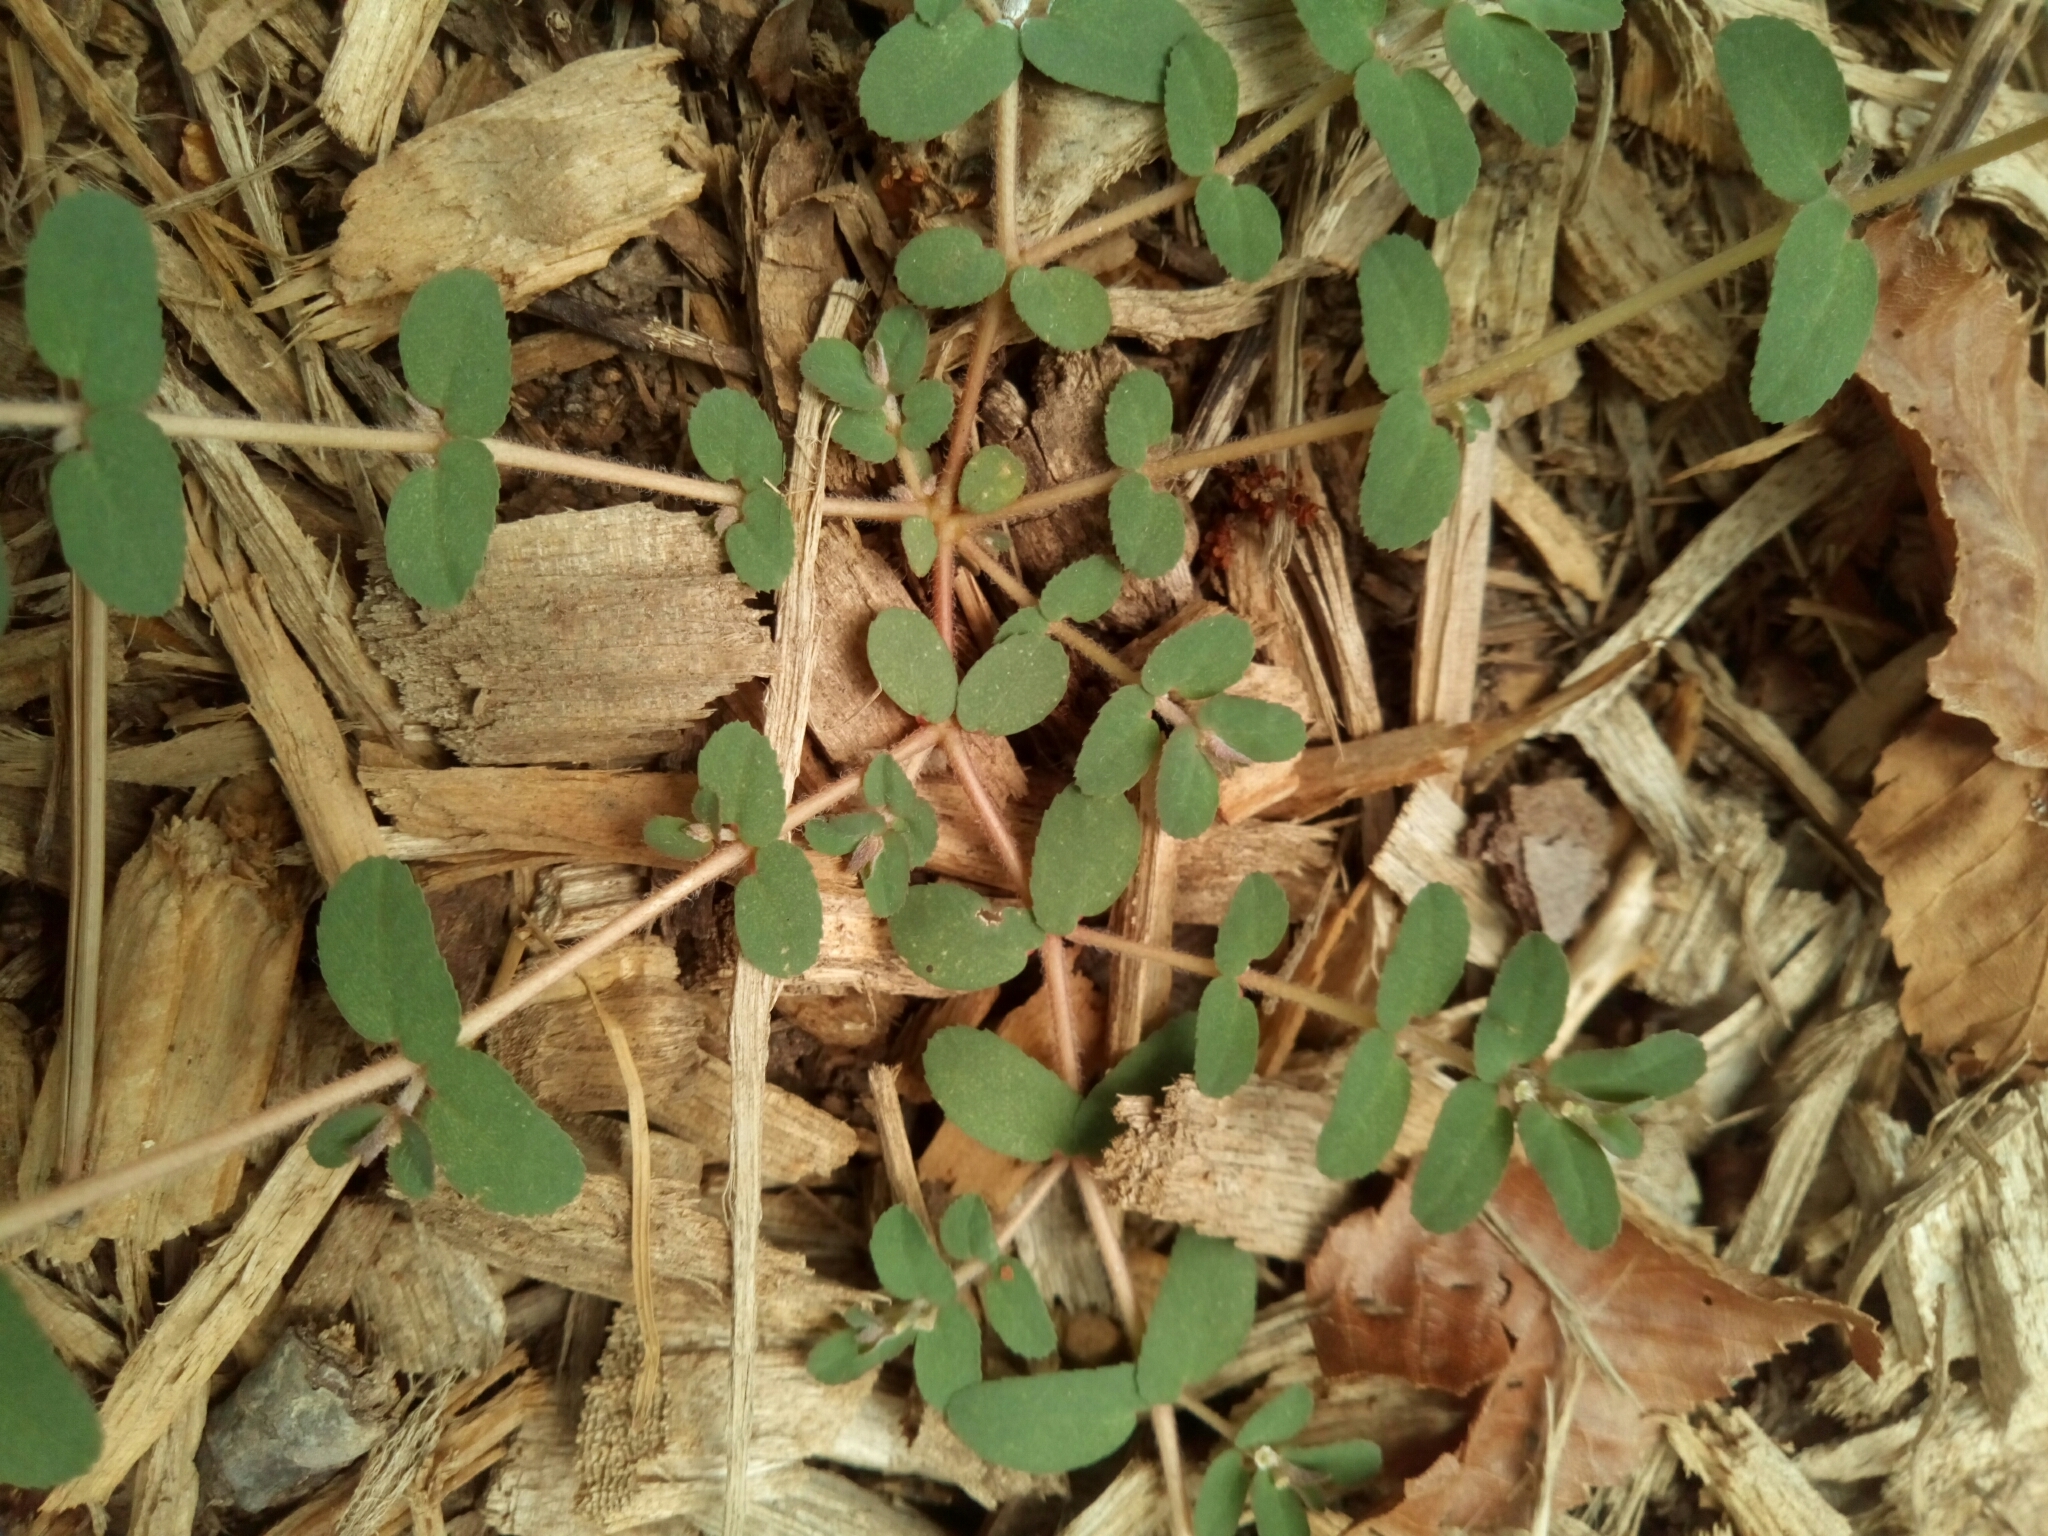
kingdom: Plantae
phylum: Tracheophyta
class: Magnoliopsida
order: Malpighiales
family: Euphorbiaceae
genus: Euphorbia
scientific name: Euphorbia maculata
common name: Spotted spurge
